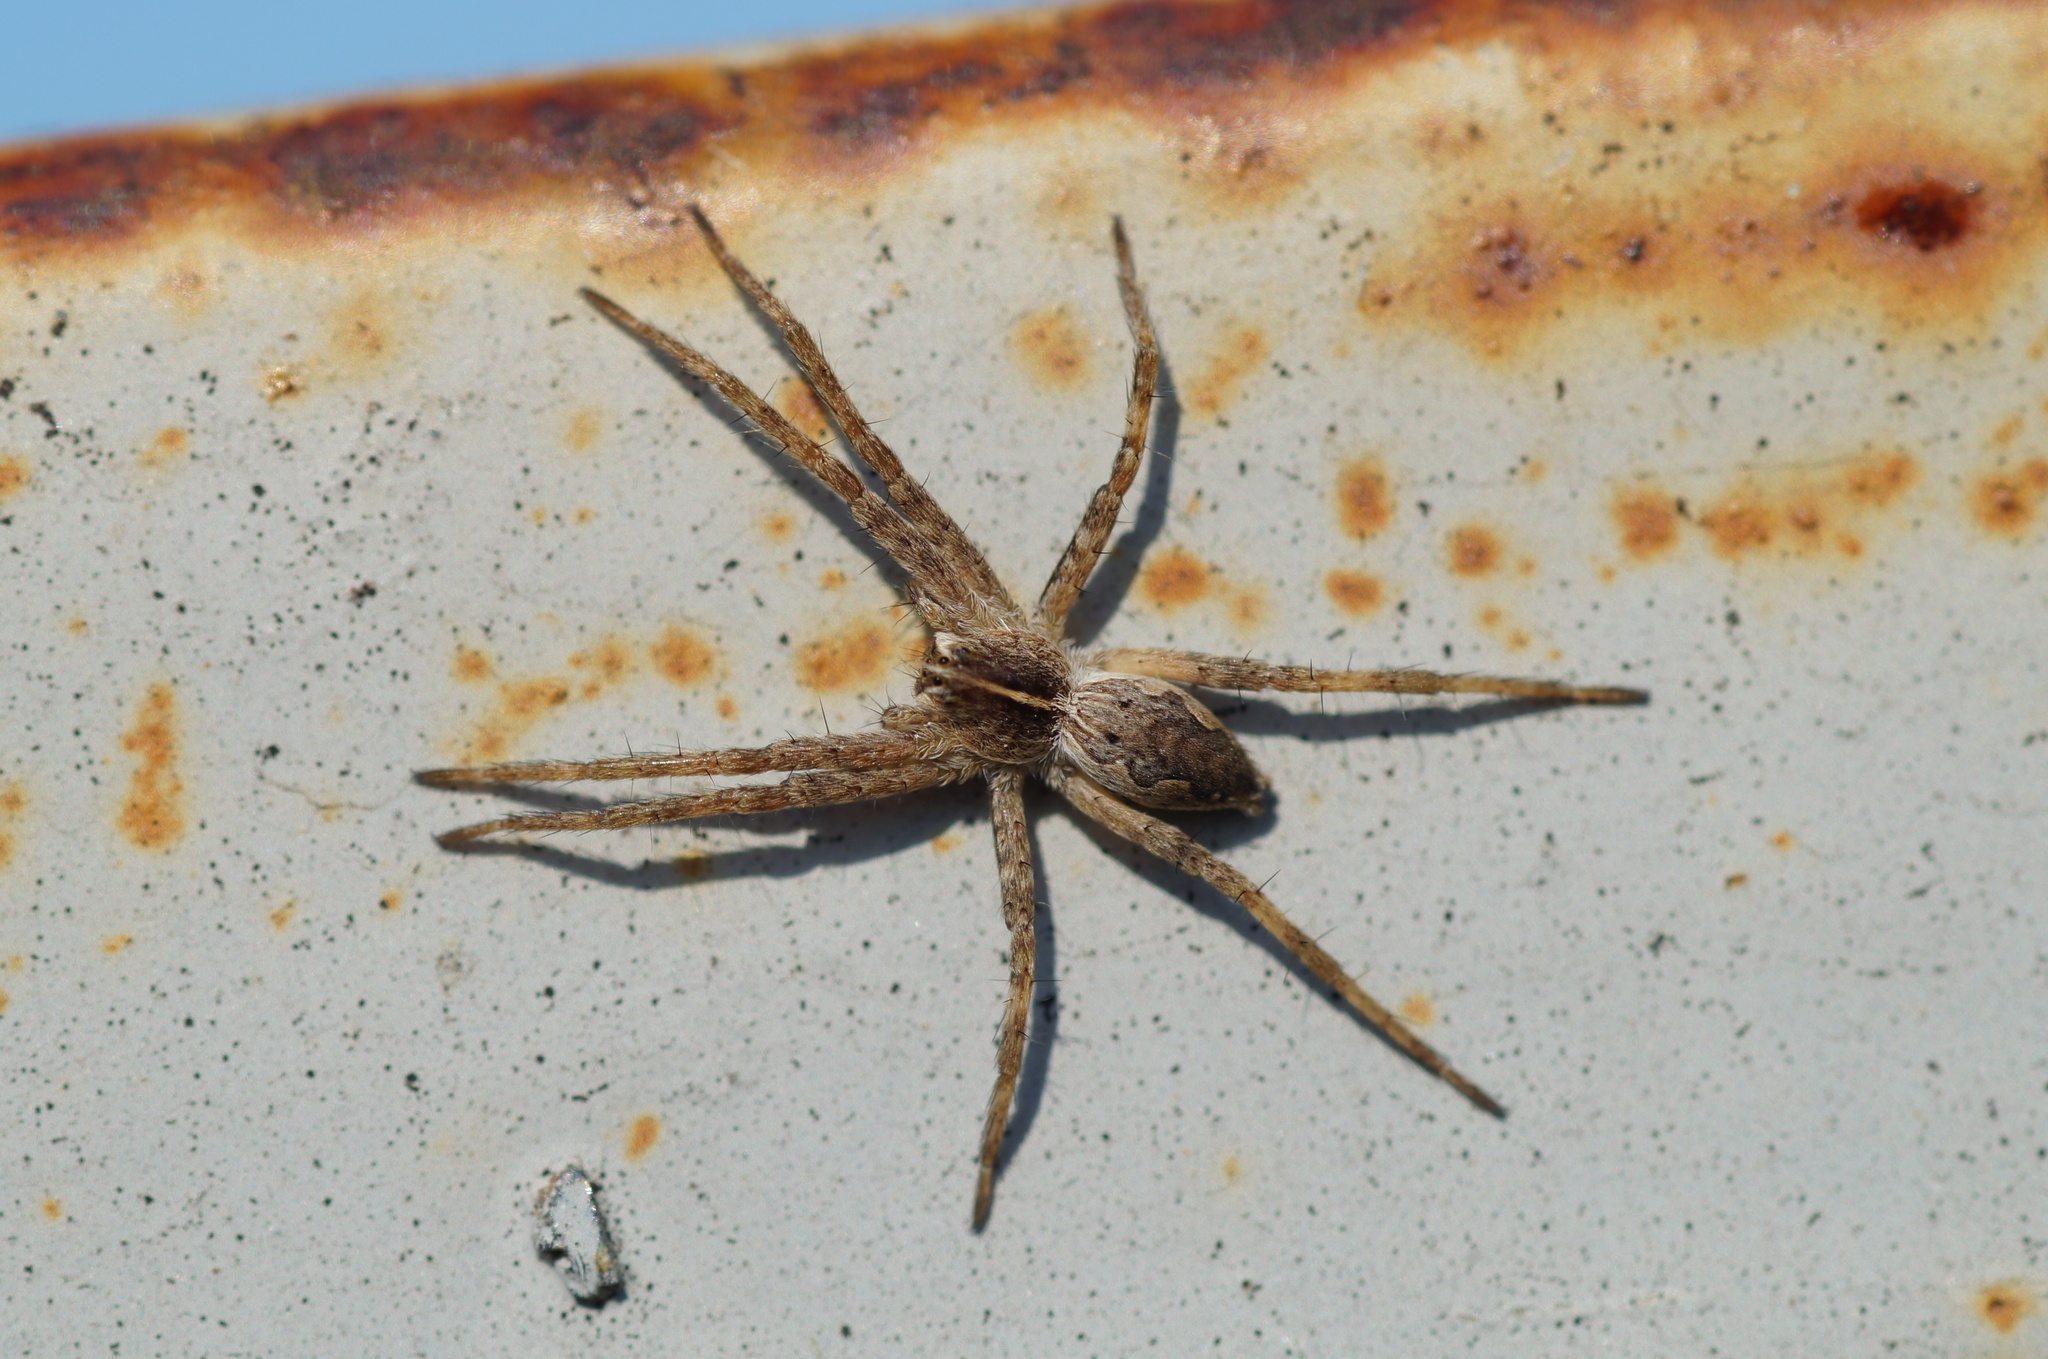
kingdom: Animalia
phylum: Arthropoda
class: Arachnida
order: Araneae
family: Pisauridae
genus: Pisaura
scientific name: Pisaura mirabilis
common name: Tent spider
